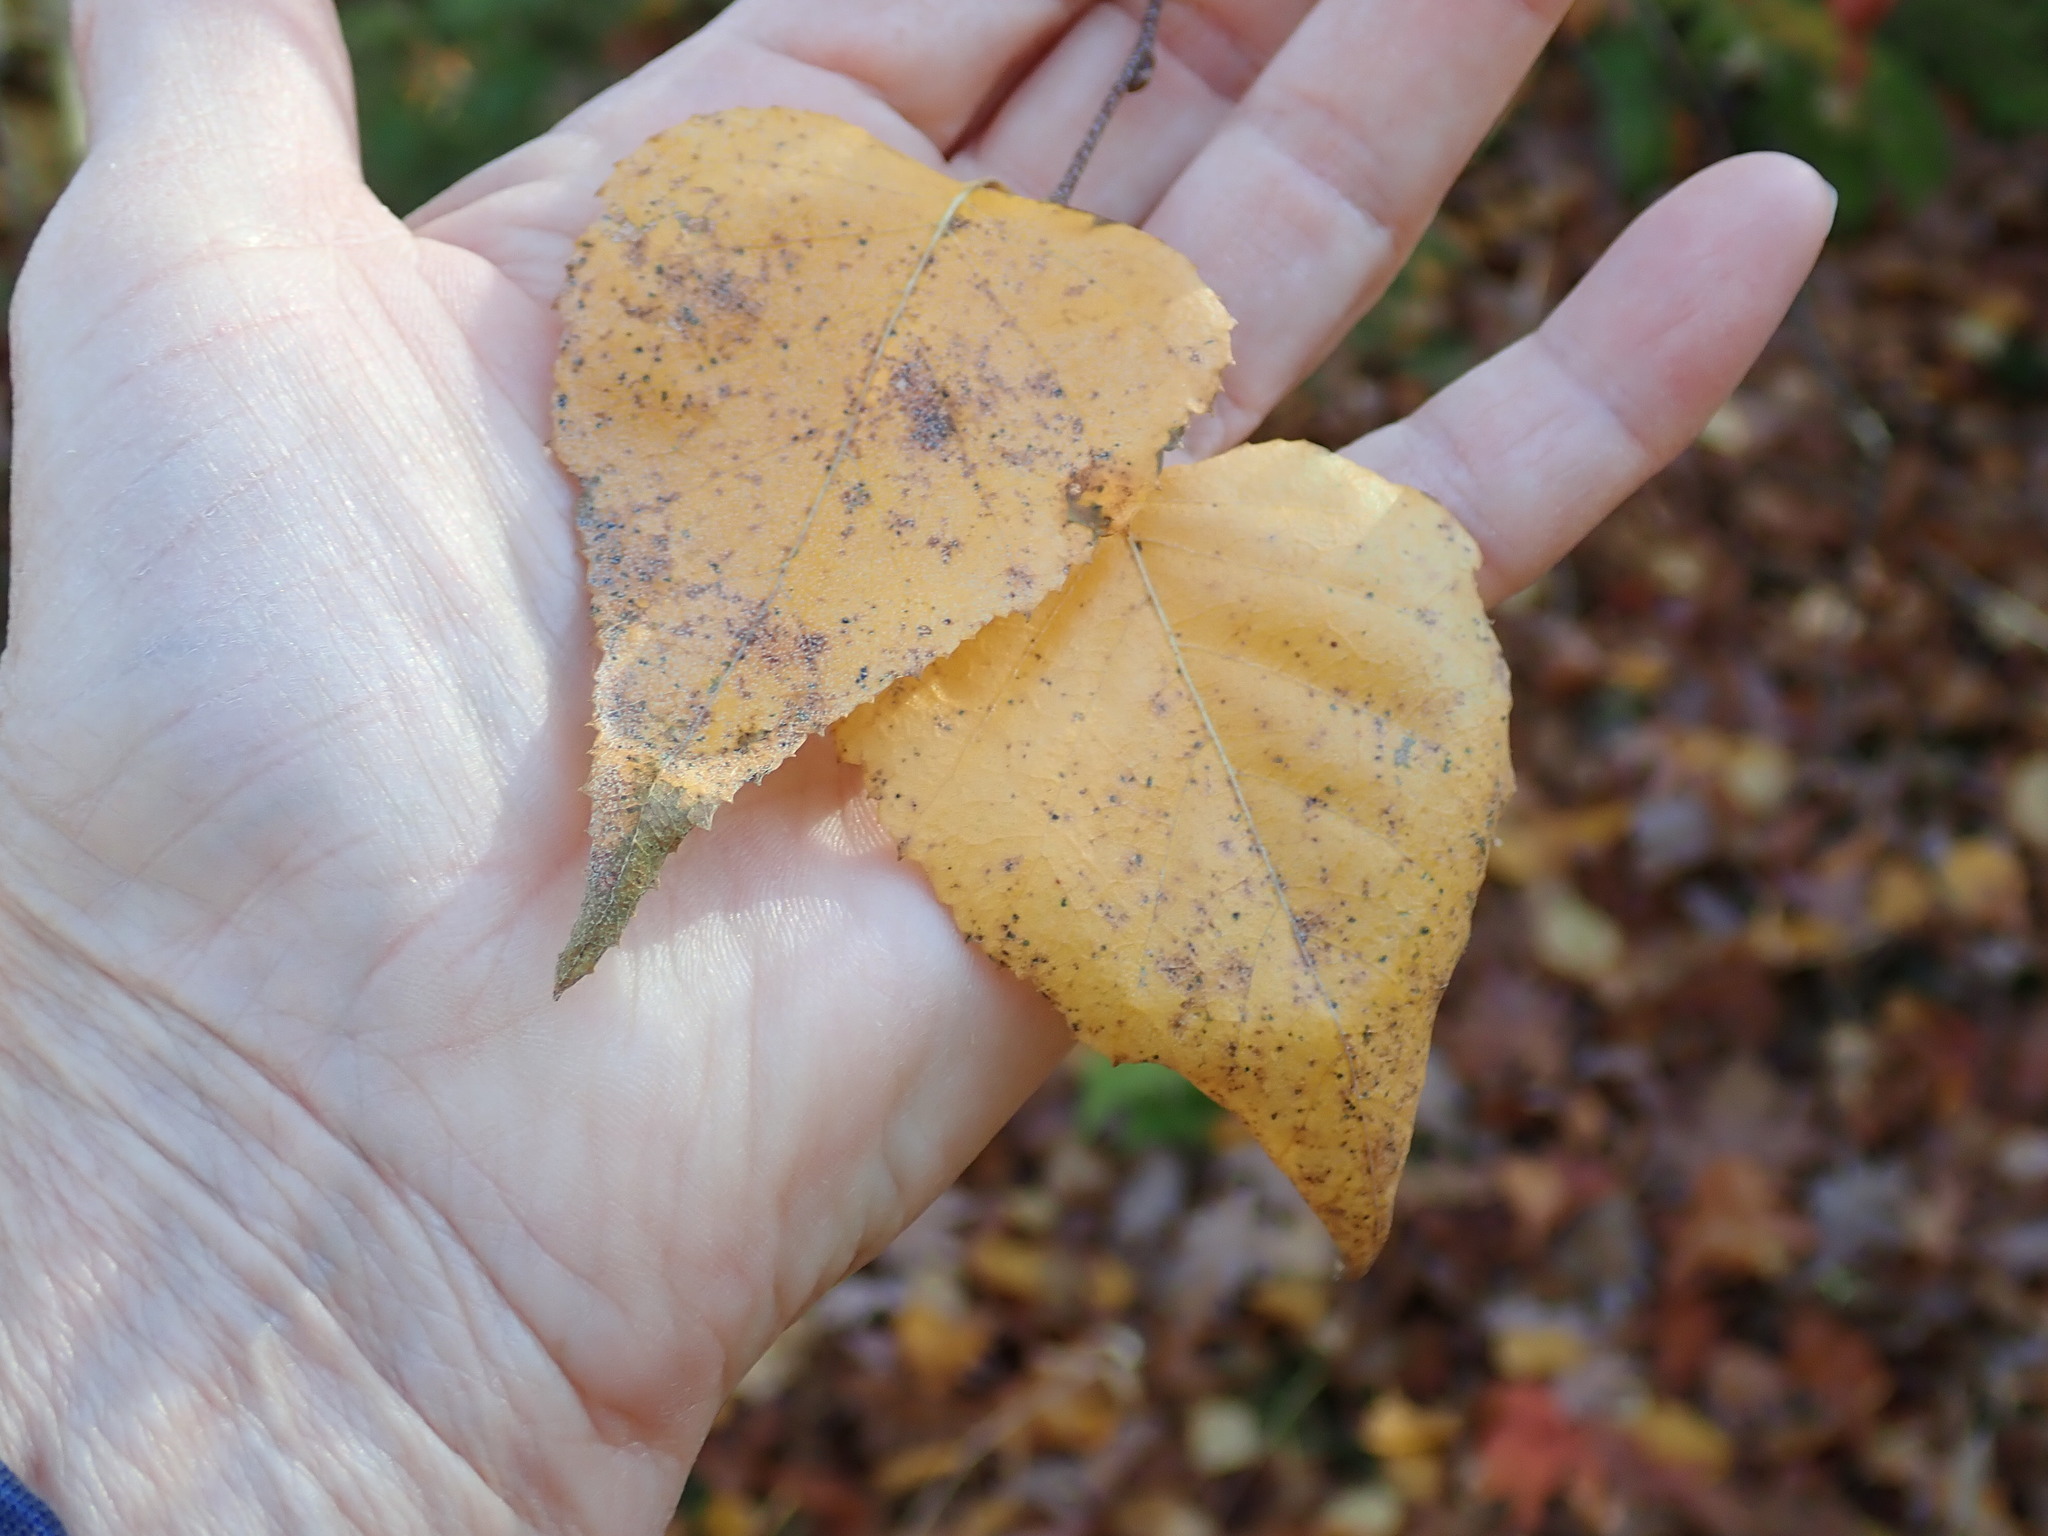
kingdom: Plantae
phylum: Tracheophyta
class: Magnoliopsida
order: Fagales
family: Betulaceae
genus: Betula
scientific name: Betula populifolia
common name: Fire birch
